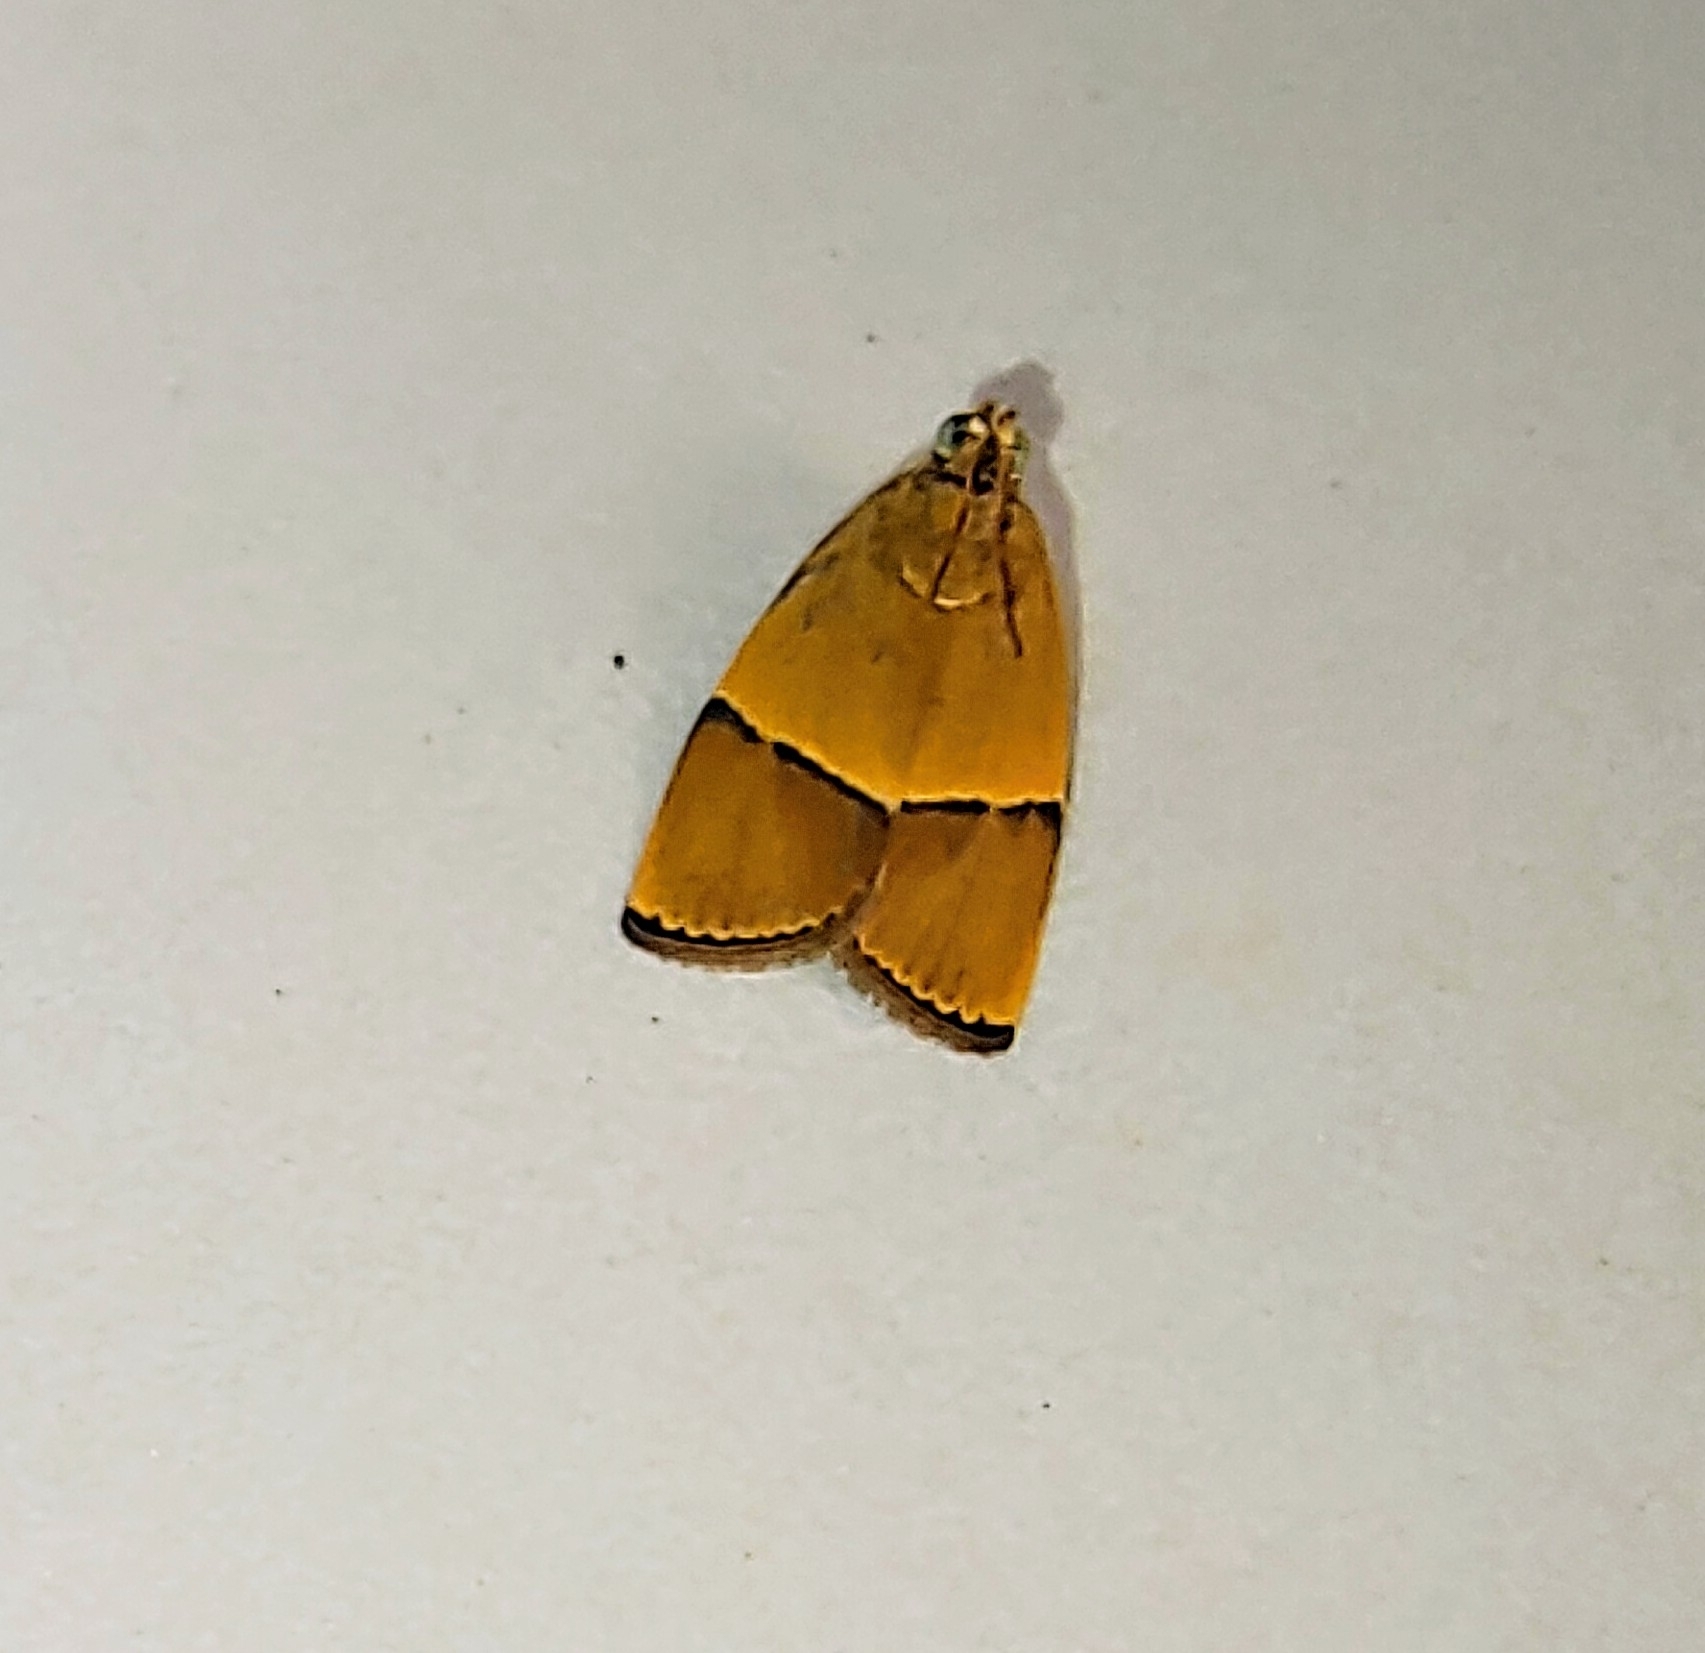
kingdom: Animalia
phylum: Arthropoda
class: Insecta
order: Lepidoptera
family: Immidae
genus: Imma
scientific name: Imma transversella
